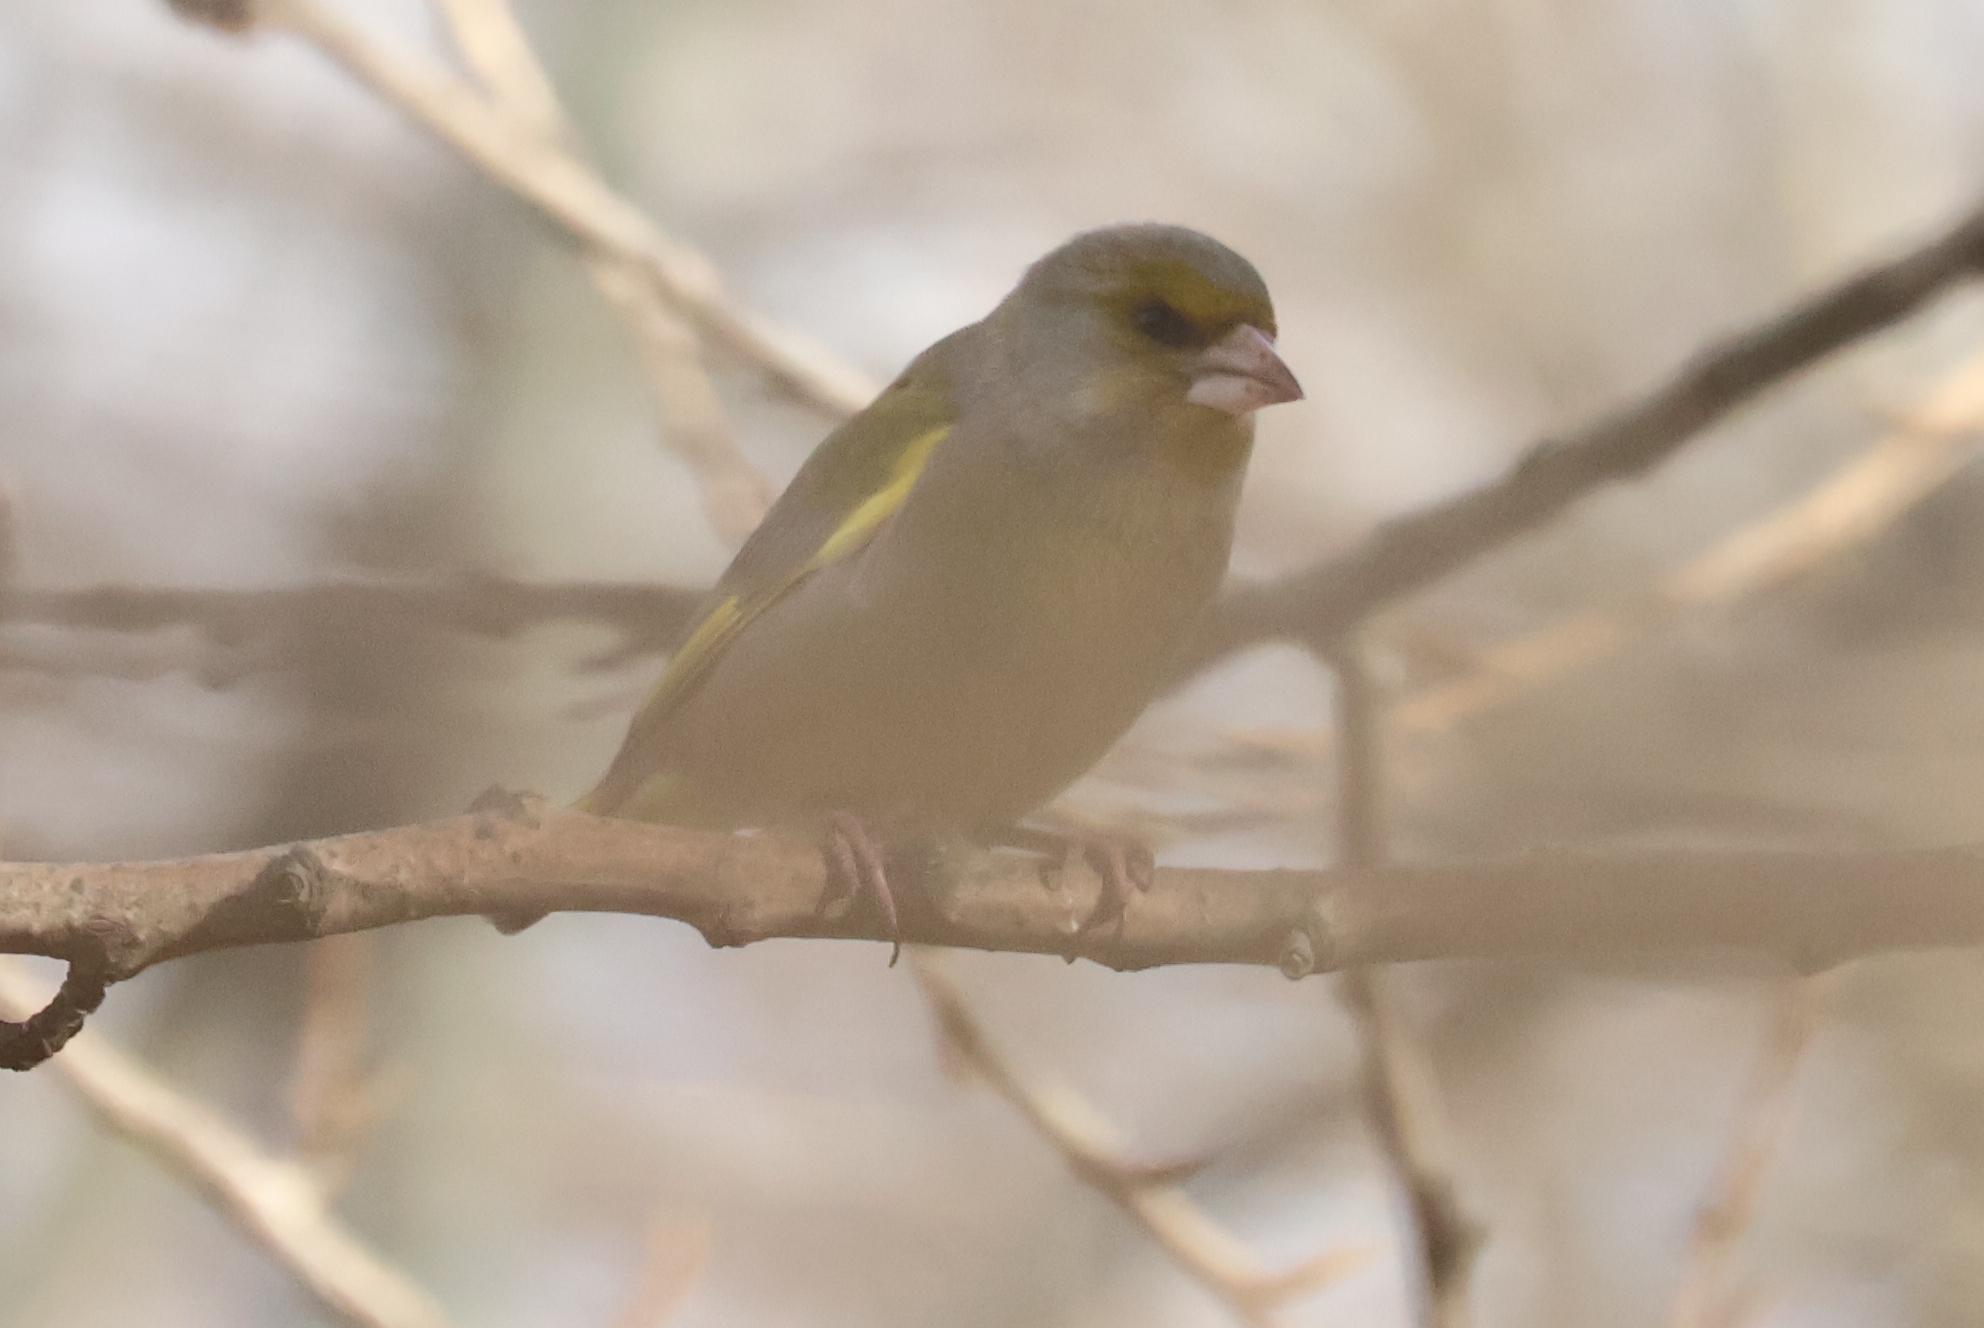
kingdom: Plantae
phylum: Tracheophyta
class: Liliopsida
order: Poales
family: Poaceae
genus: Chloris
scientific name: Chloris chloris
